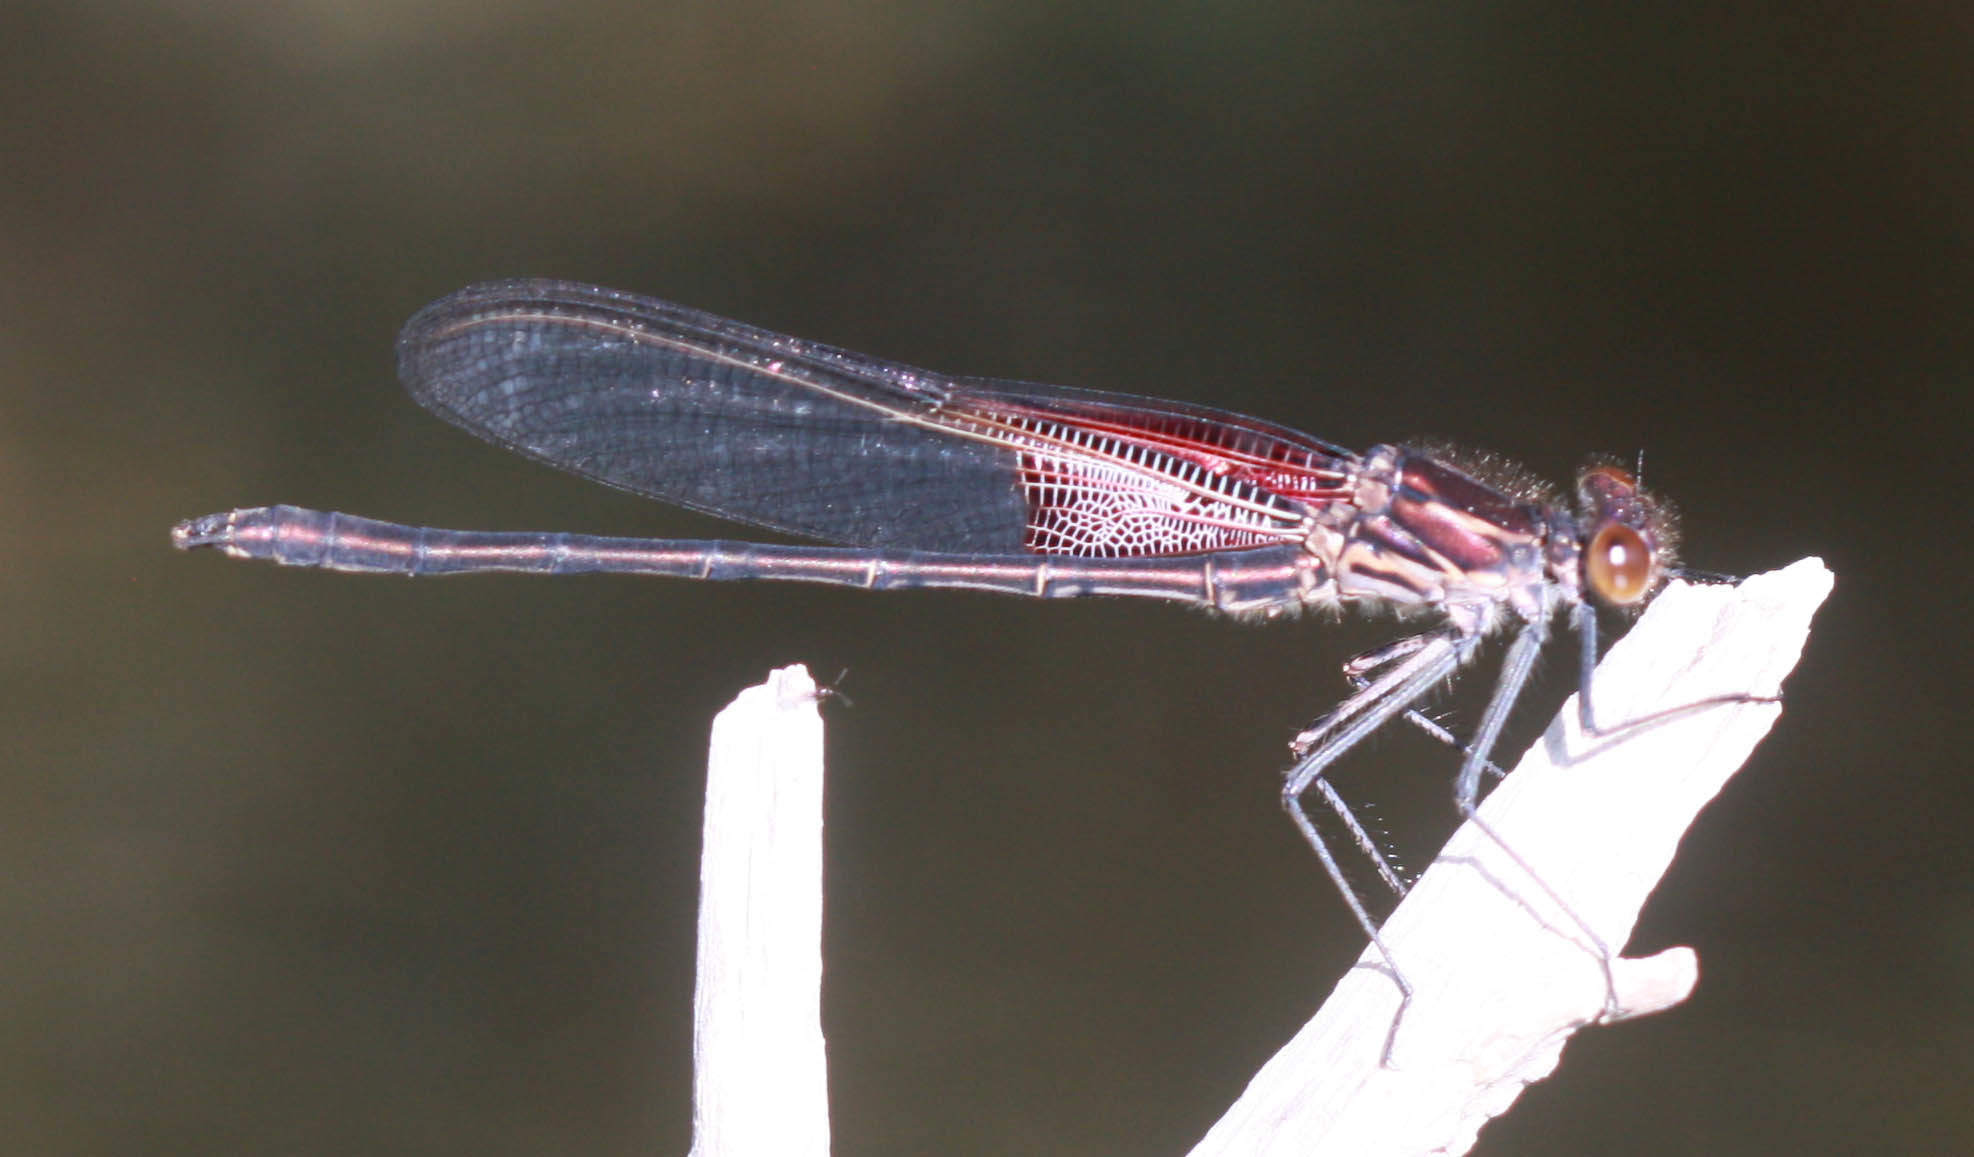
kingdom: Animalia
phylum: Arthropoda
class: Insecta
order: Odonata
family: Calopterygidae
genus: Hetaerina
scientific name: Hetaerina americana
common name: American rubyspot
